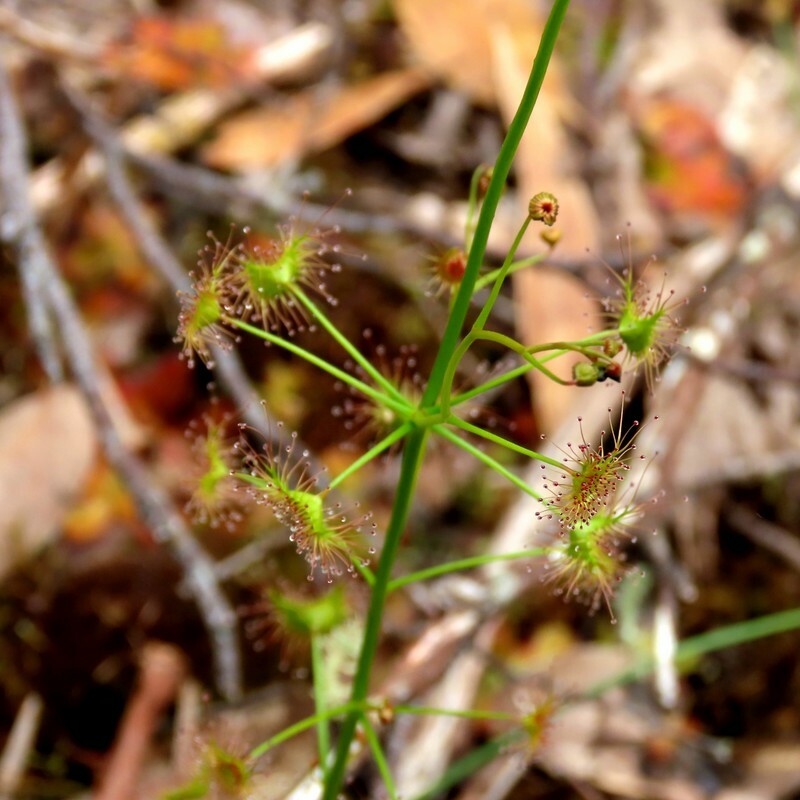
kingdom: Plantae
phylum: Tracheophyta
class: Magnoliopsida
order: Caryophyllales
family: Droseraceae
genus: Drosera
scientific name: Drosera peltata
